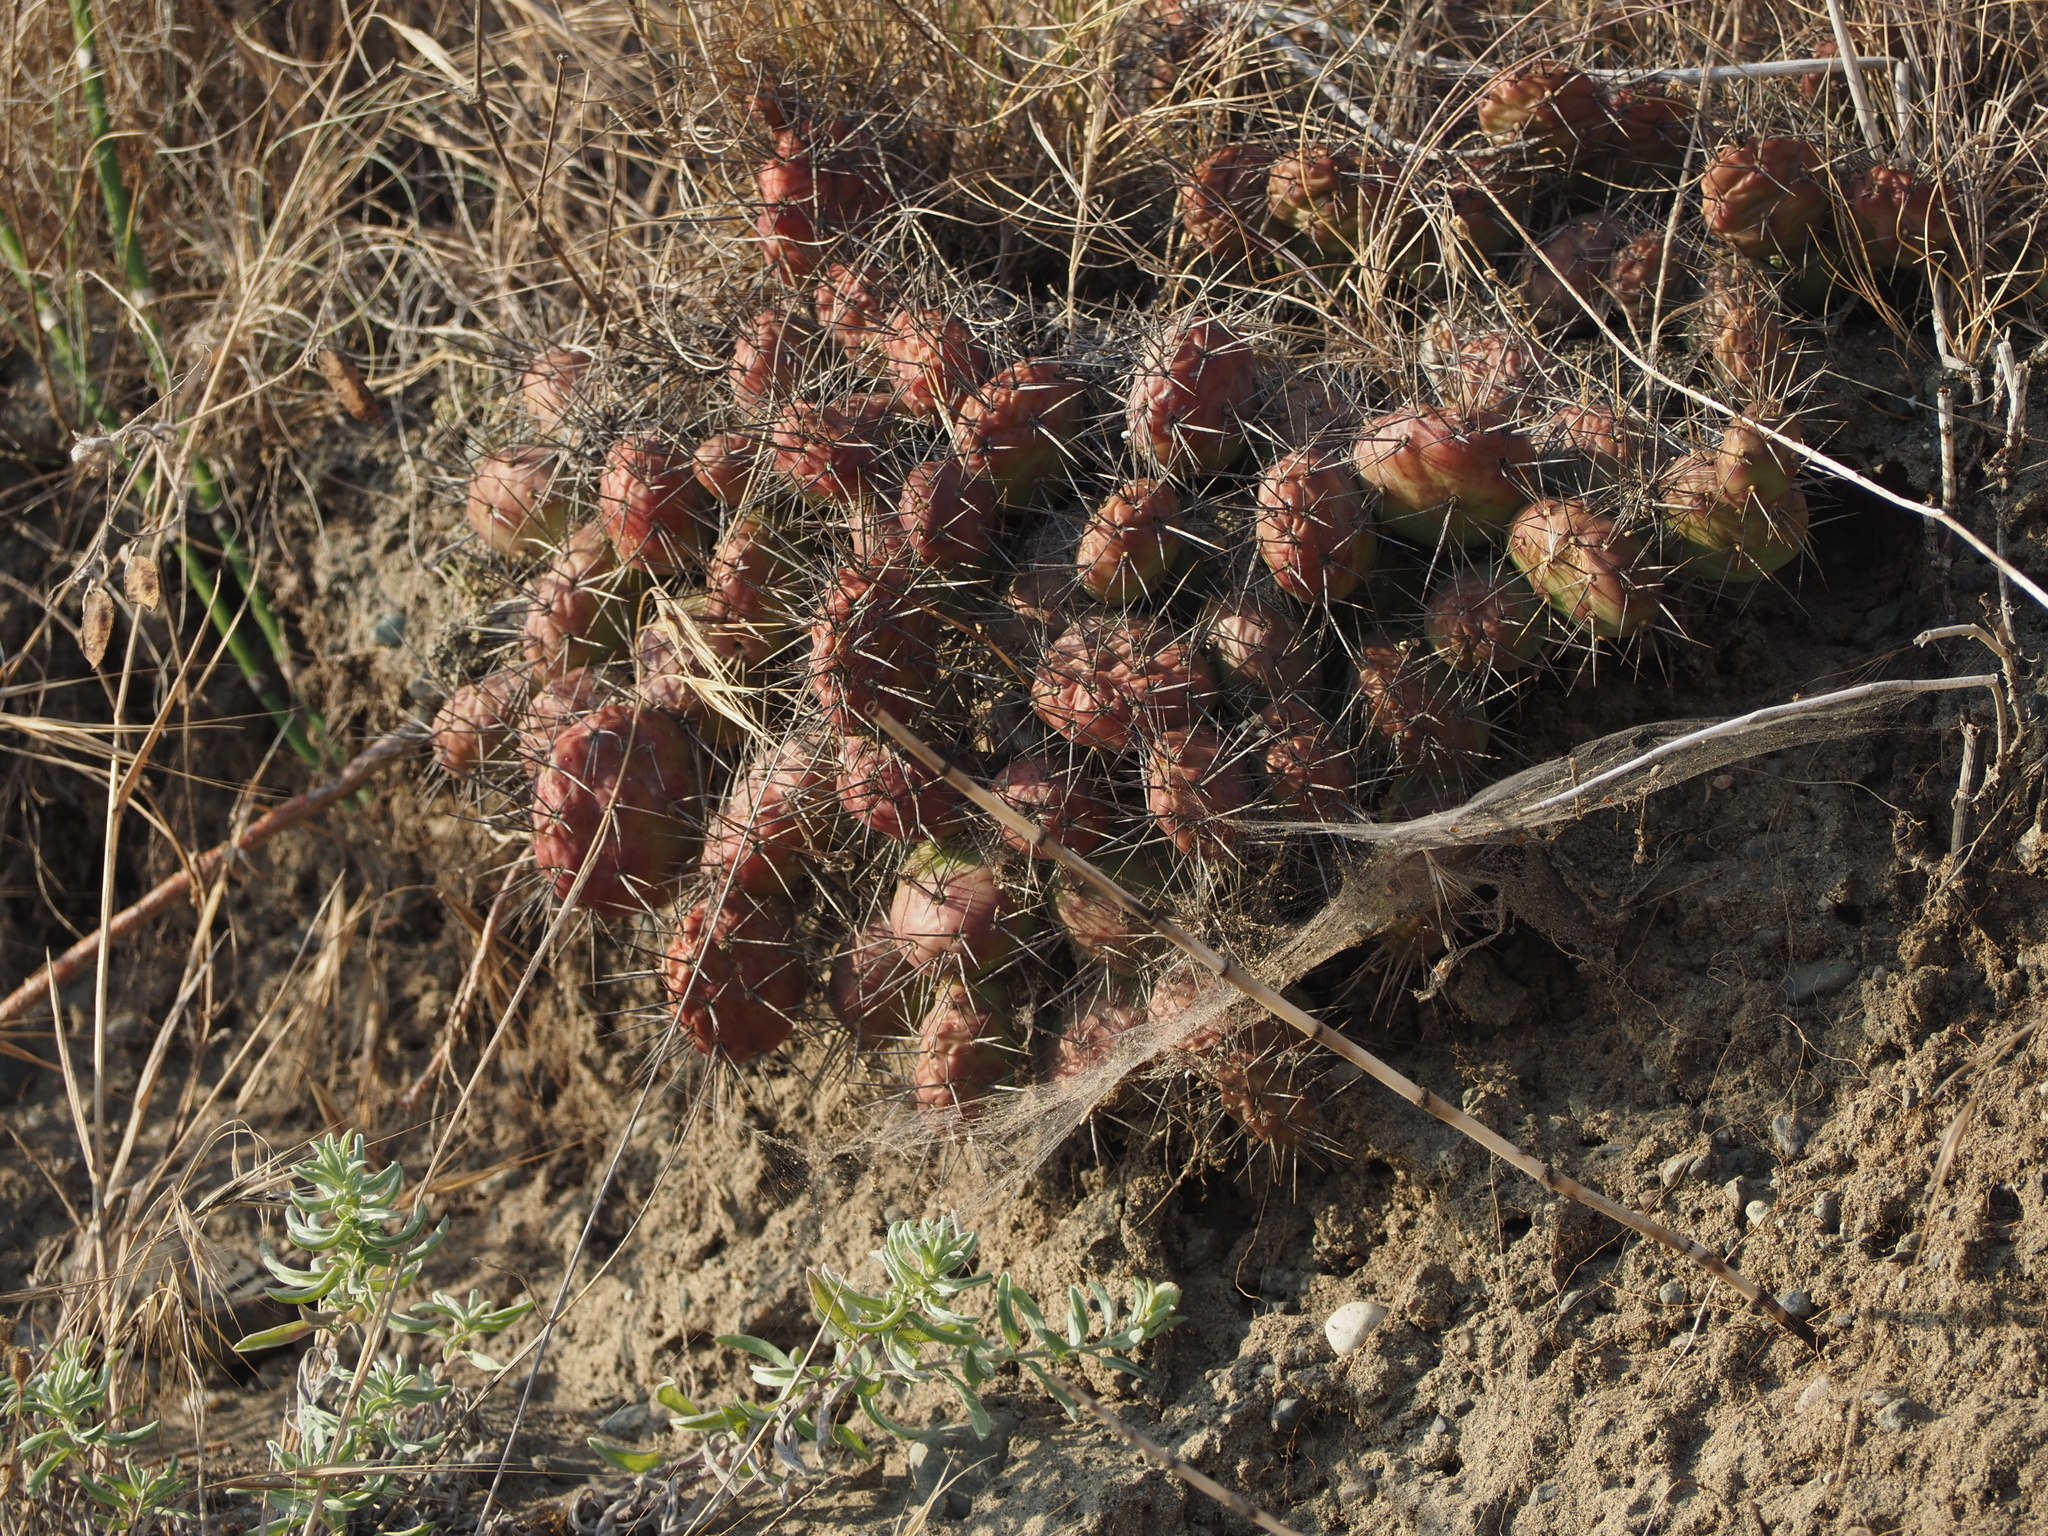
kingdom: Plantae
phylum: Tracheophyta
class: Magnoliopsida
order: Caryophyllales
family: Cactaceae
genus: Opuntia
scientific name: Opuntia fragilis
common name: Brittle cactus
